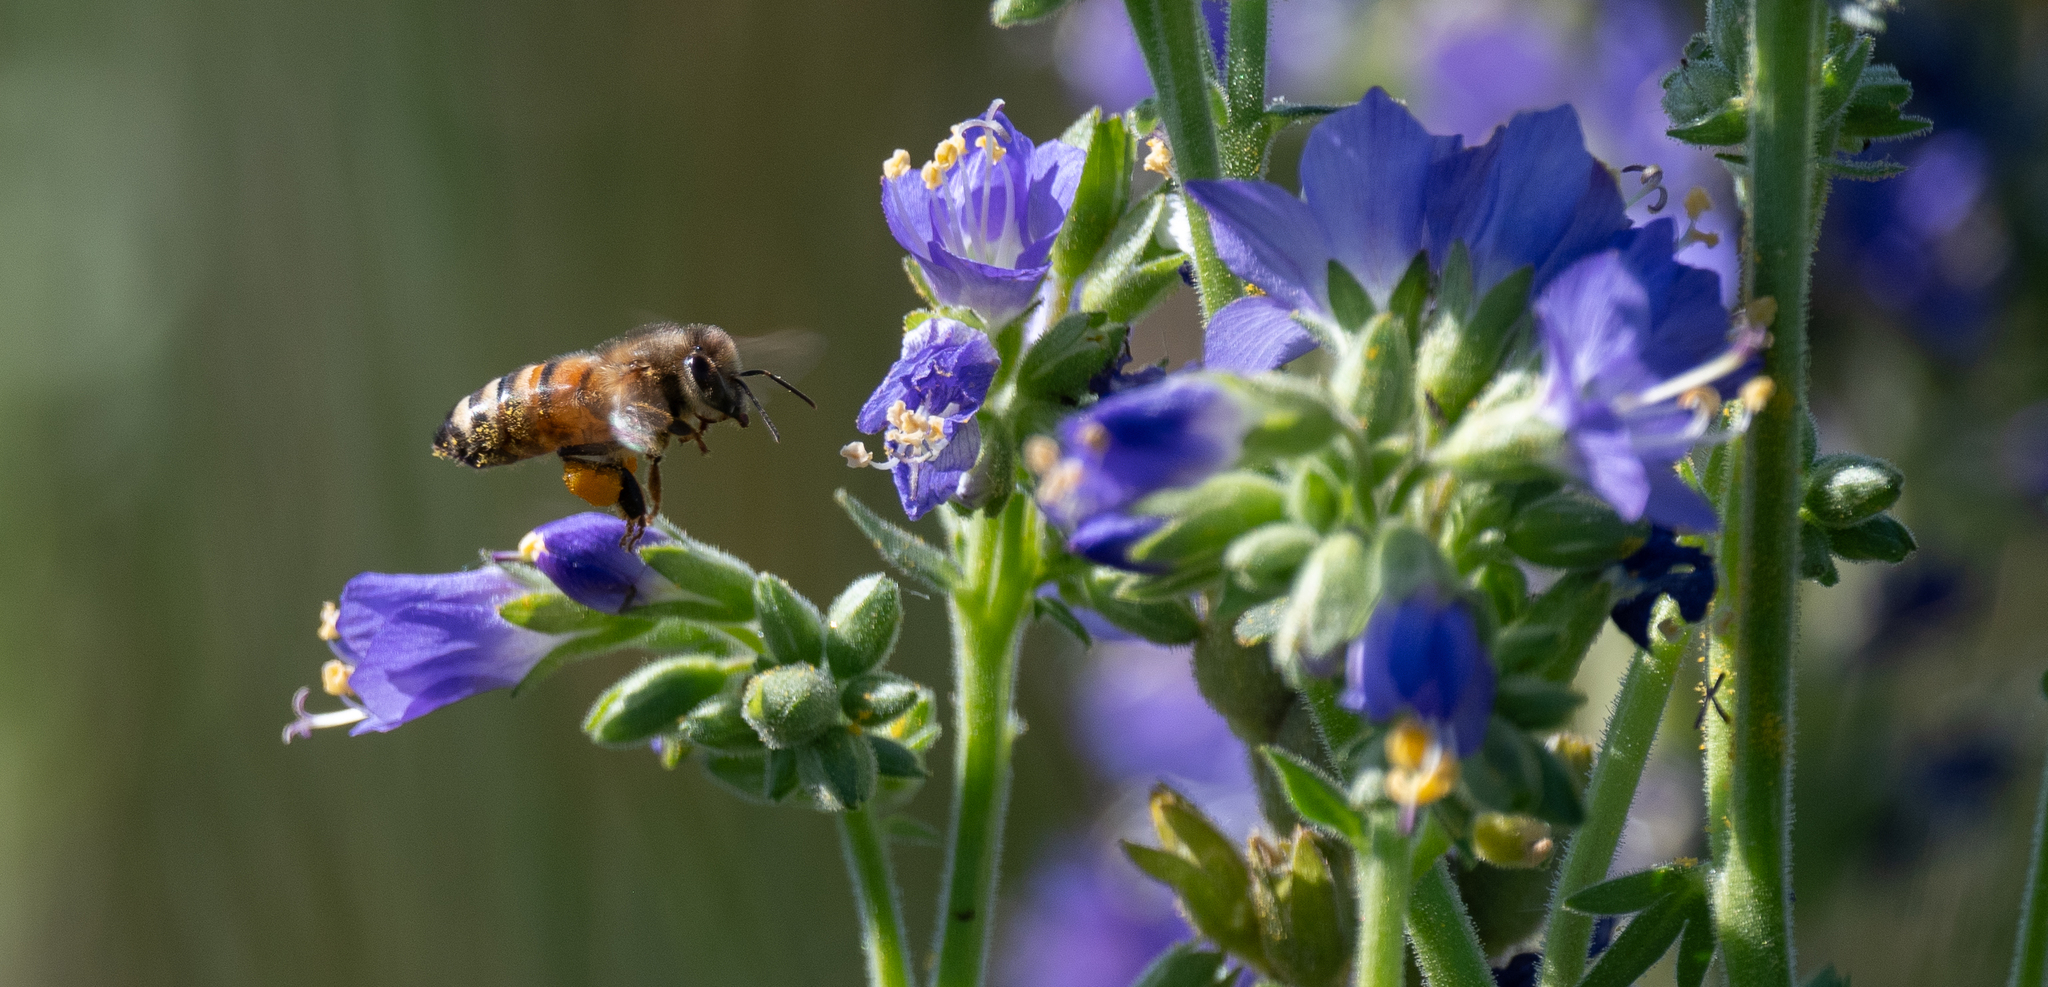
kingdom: Plantae
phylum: Tracheophyta
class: Magnoliopsida
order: Ericales
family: Polemoniaceae
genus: Polemonium
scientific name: Polemonium occidentale
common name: Western jacob's-ladder
